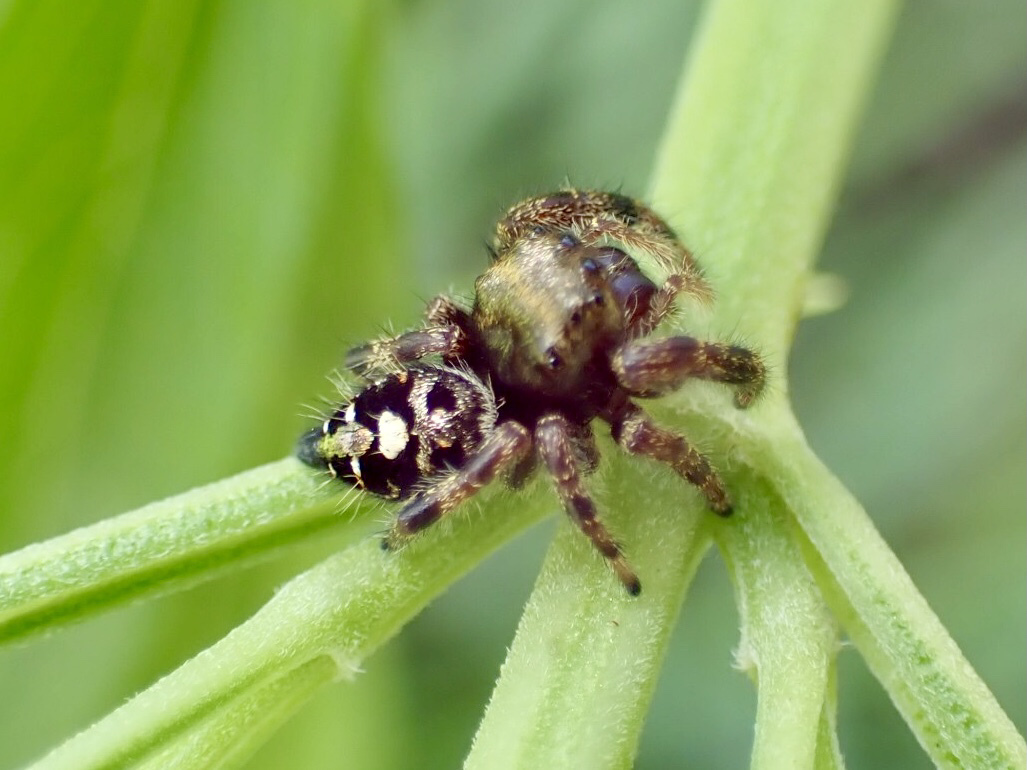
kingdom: Animalia
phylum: Arthropoda
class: Arachnida
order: Araneae
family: Salticidae
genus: Phidippus
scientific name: Phidippus audax
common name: Bold jumper
